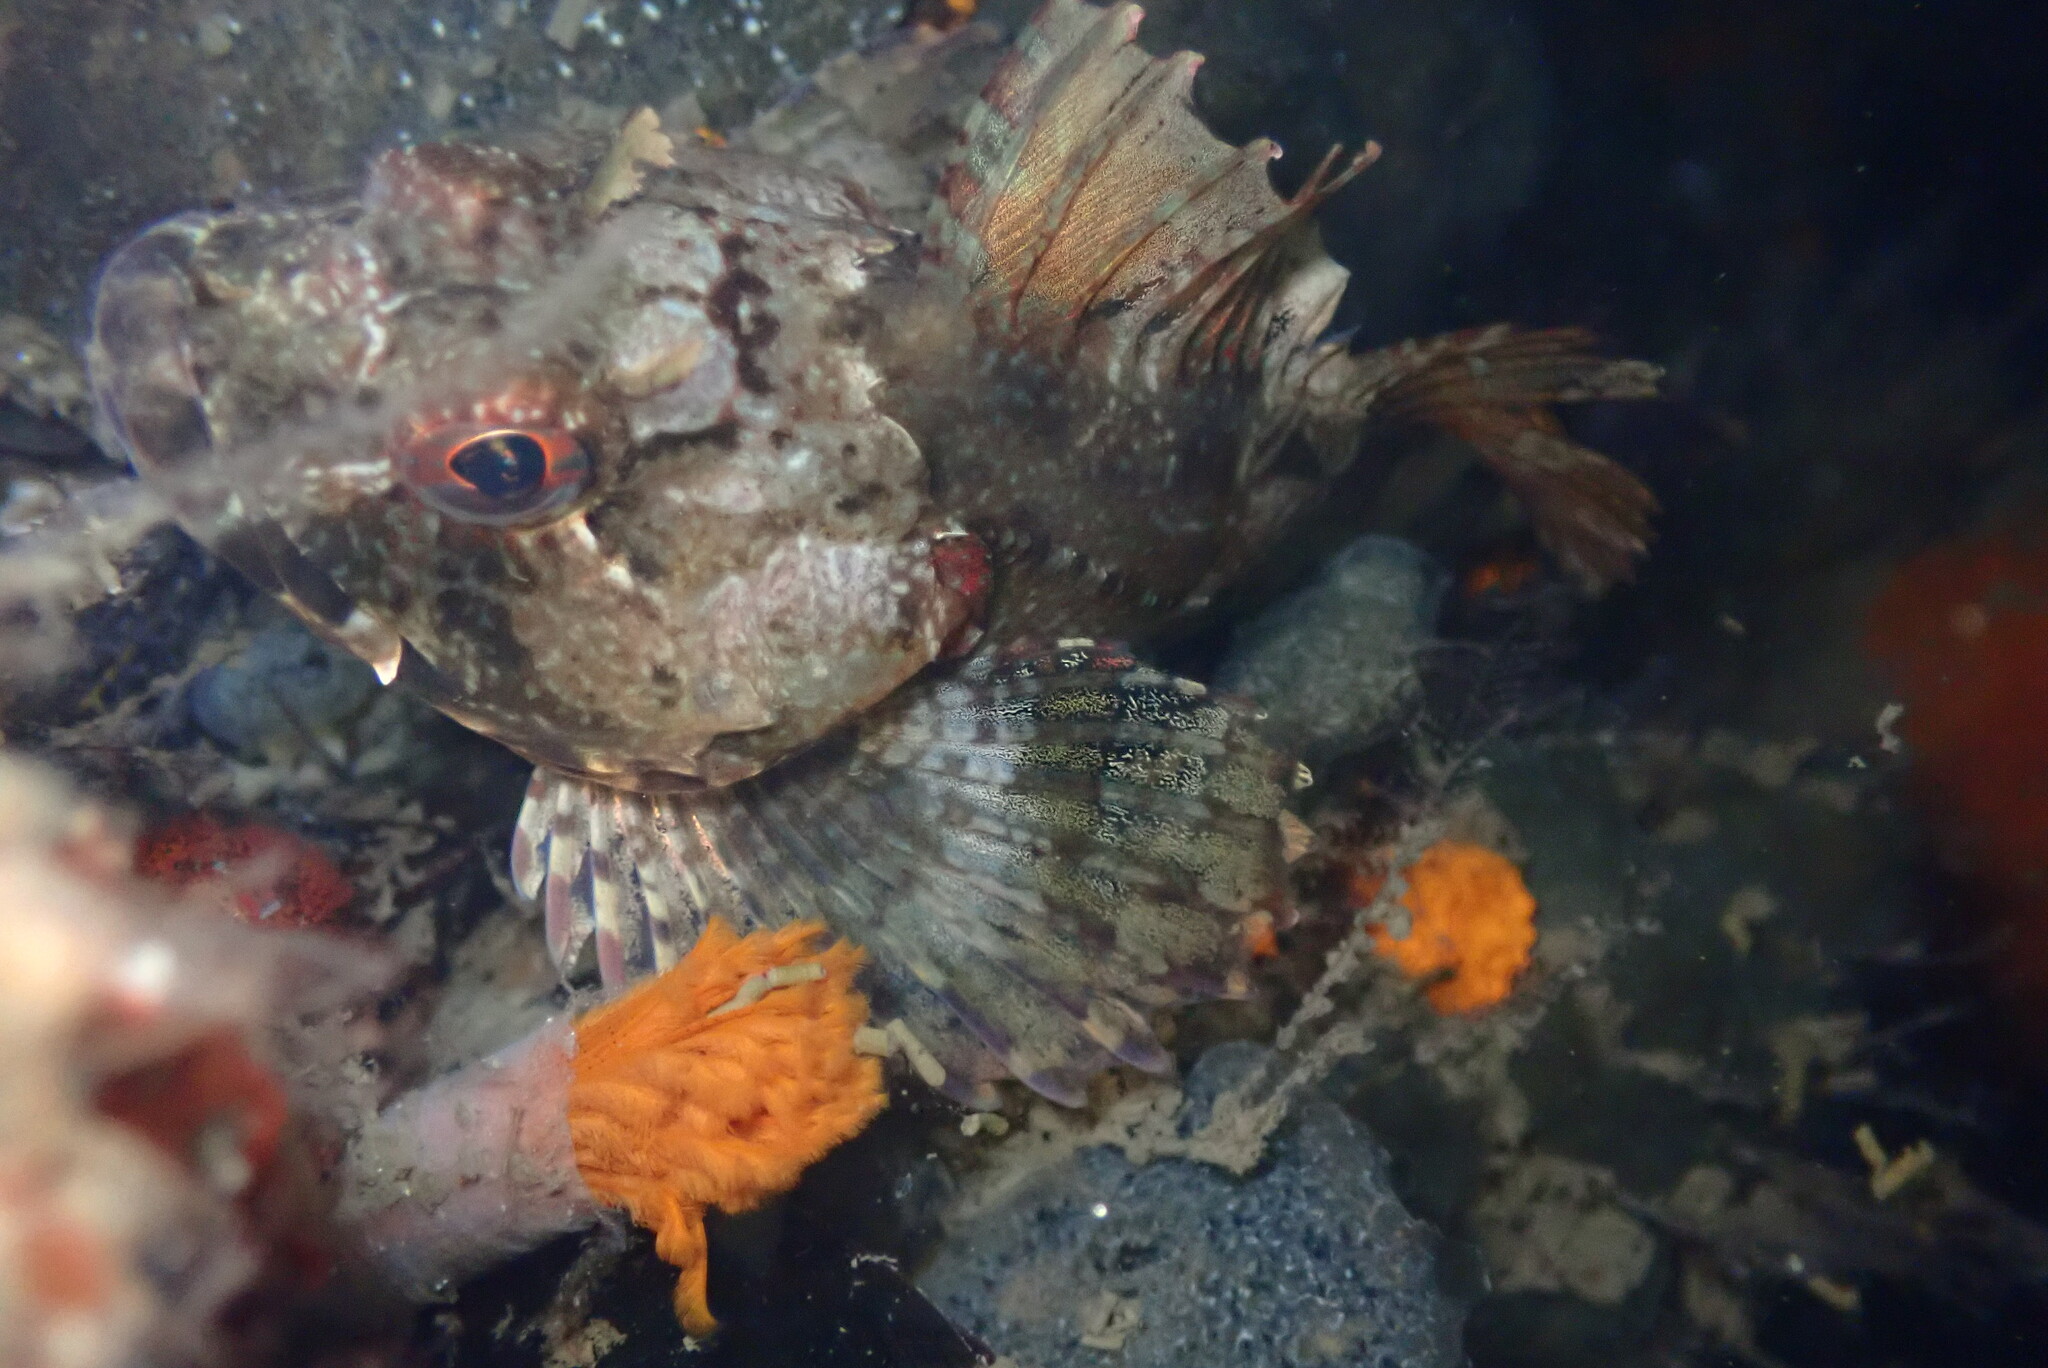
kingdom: Animalia
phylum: Chordata
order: Scorpaeniformes
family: Cottidae
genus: Scorpaenichthys
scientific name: Scorpaenichthys marmoratus
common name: Cabezon
